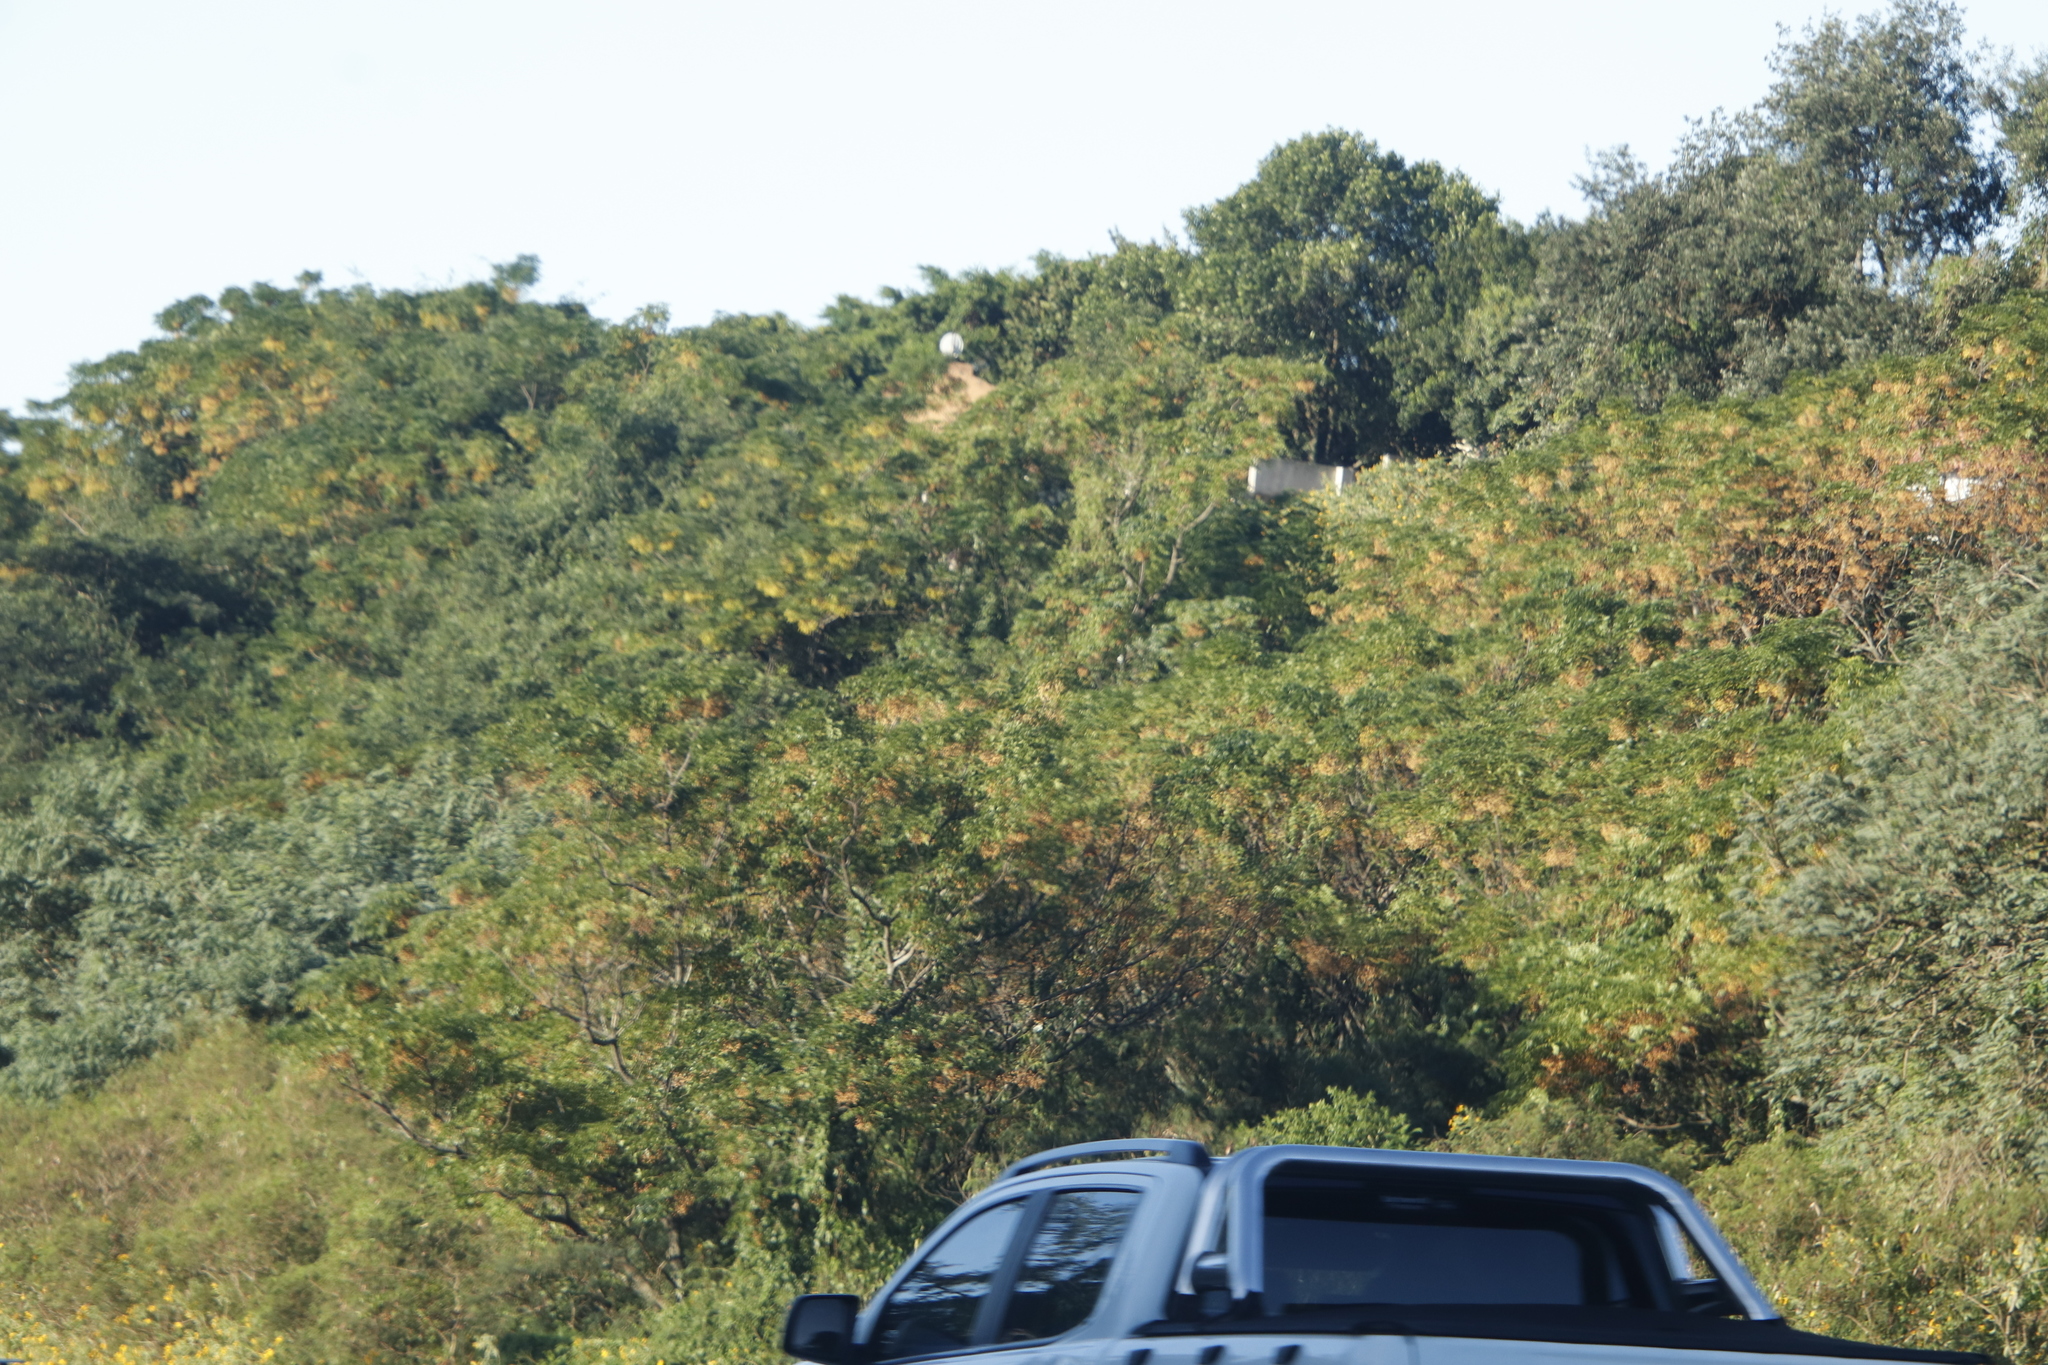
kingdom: Plantae
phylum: Tracheophyta
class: Magnoliopsida
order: Sapindales
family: Meliaceae
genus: Melia
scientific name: Melia azedarach
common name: Chinaberrytree
